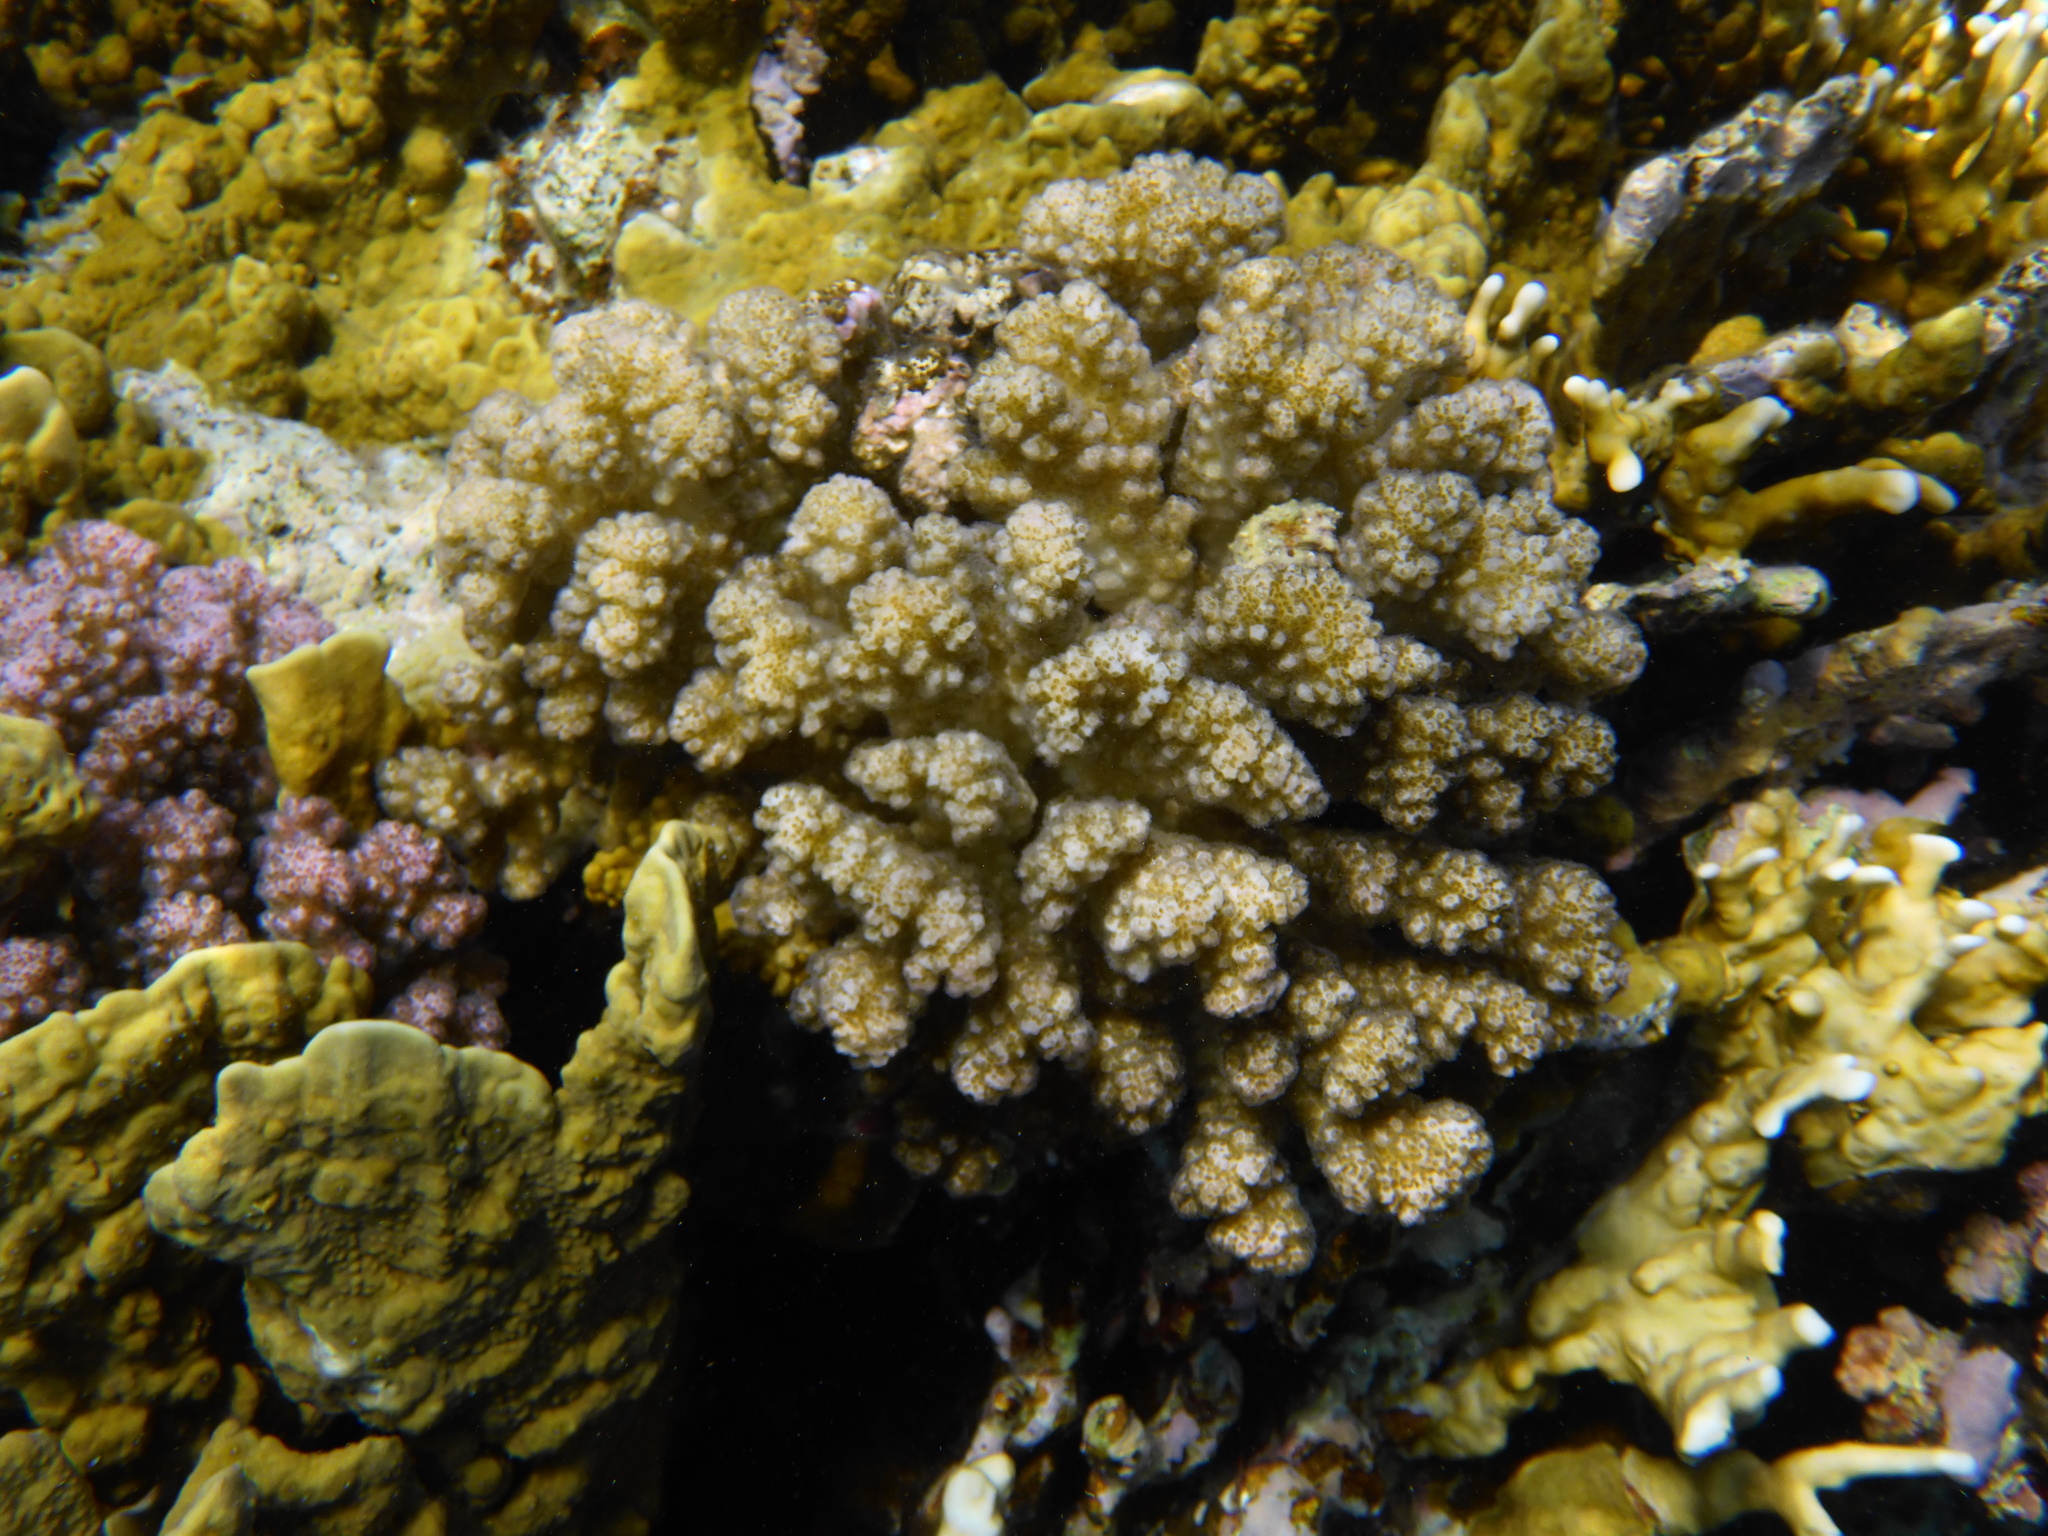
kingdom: Animalia
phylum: Cnidaria
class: Anthozoa
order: Scleractinia
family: Pocilloporidae
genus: Pocillopora
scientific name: Pocillopora verrucosa
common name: Cauliflower coral
